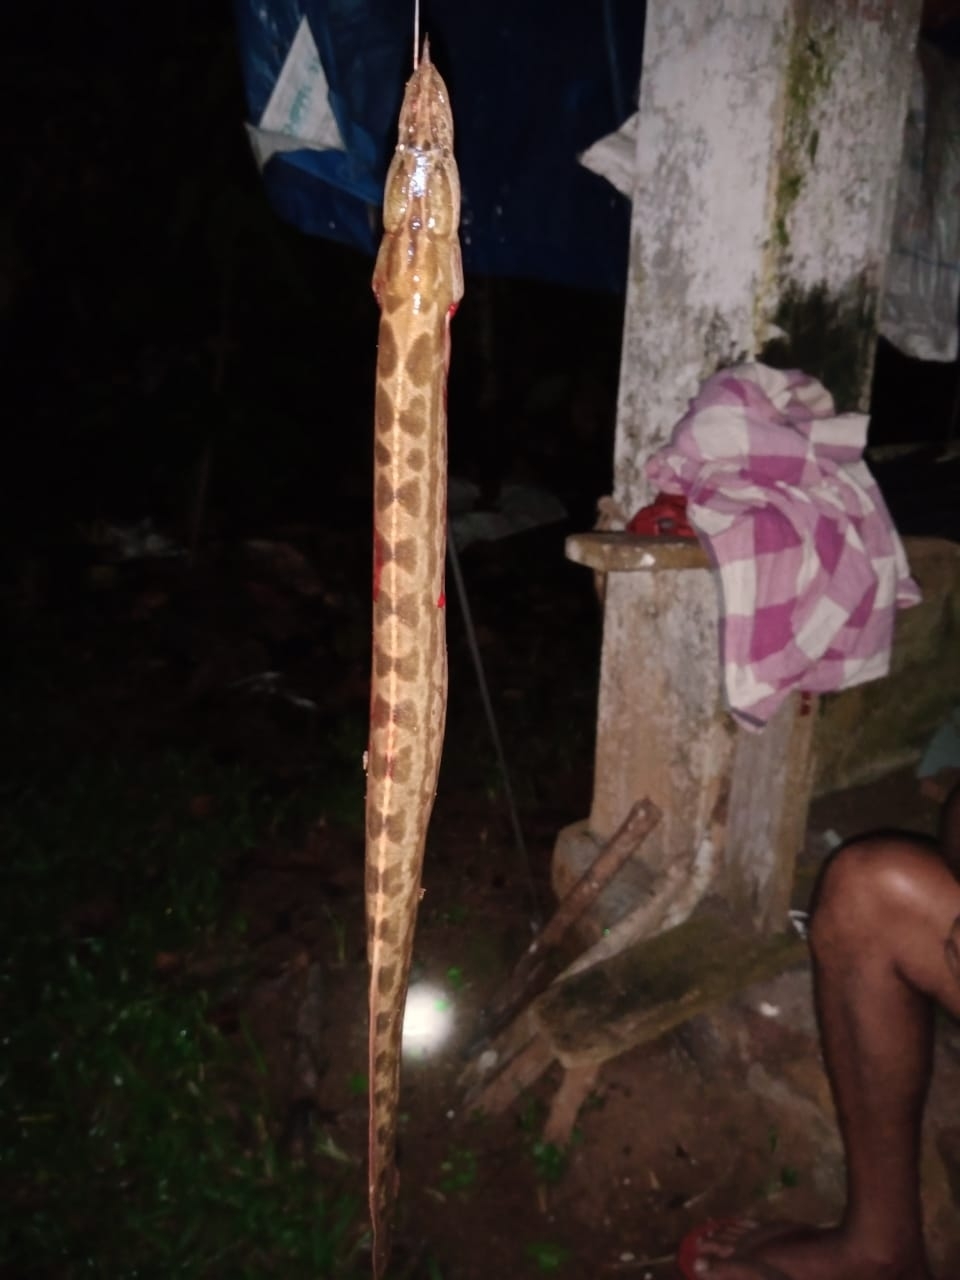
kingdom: Animalia
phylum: Chordata
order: Synbranchiformes
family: Mastacembelidae
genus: Mastacembelus
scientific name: Mastacembelus armatus
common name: Spiny eel
